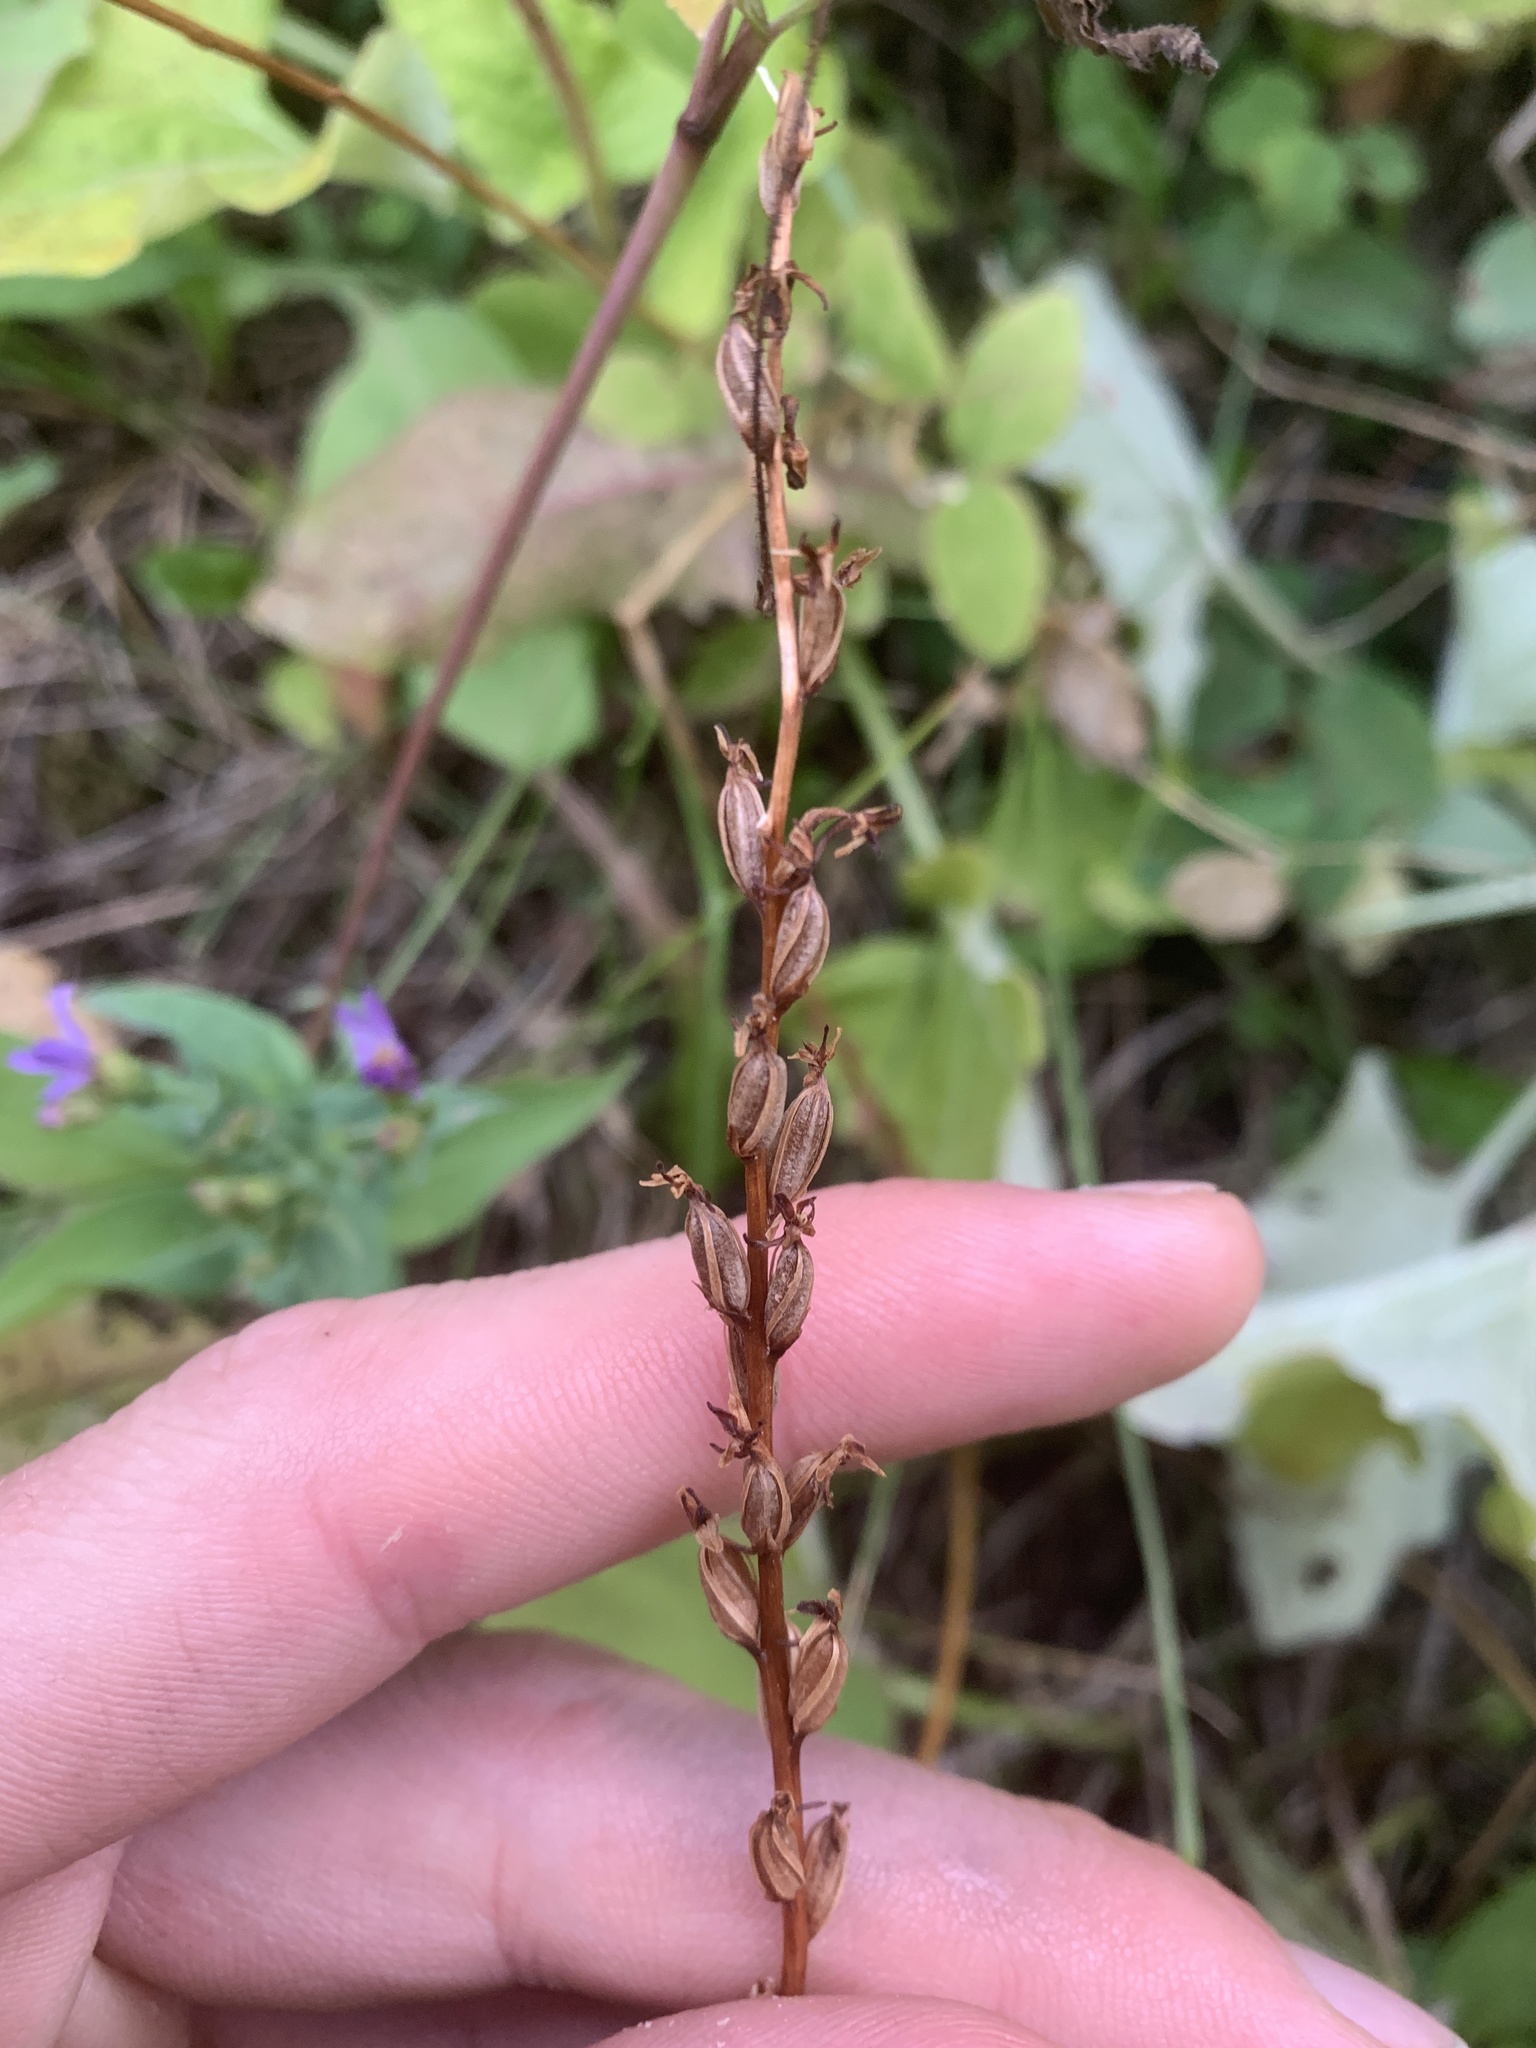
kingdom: Plantae
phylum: Tracheophyta
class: Liliopsida
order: Asparagales
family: Orchidaceae
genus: Platanthera
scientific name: Platanthera unalascensis
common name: Alaska bog orchid
